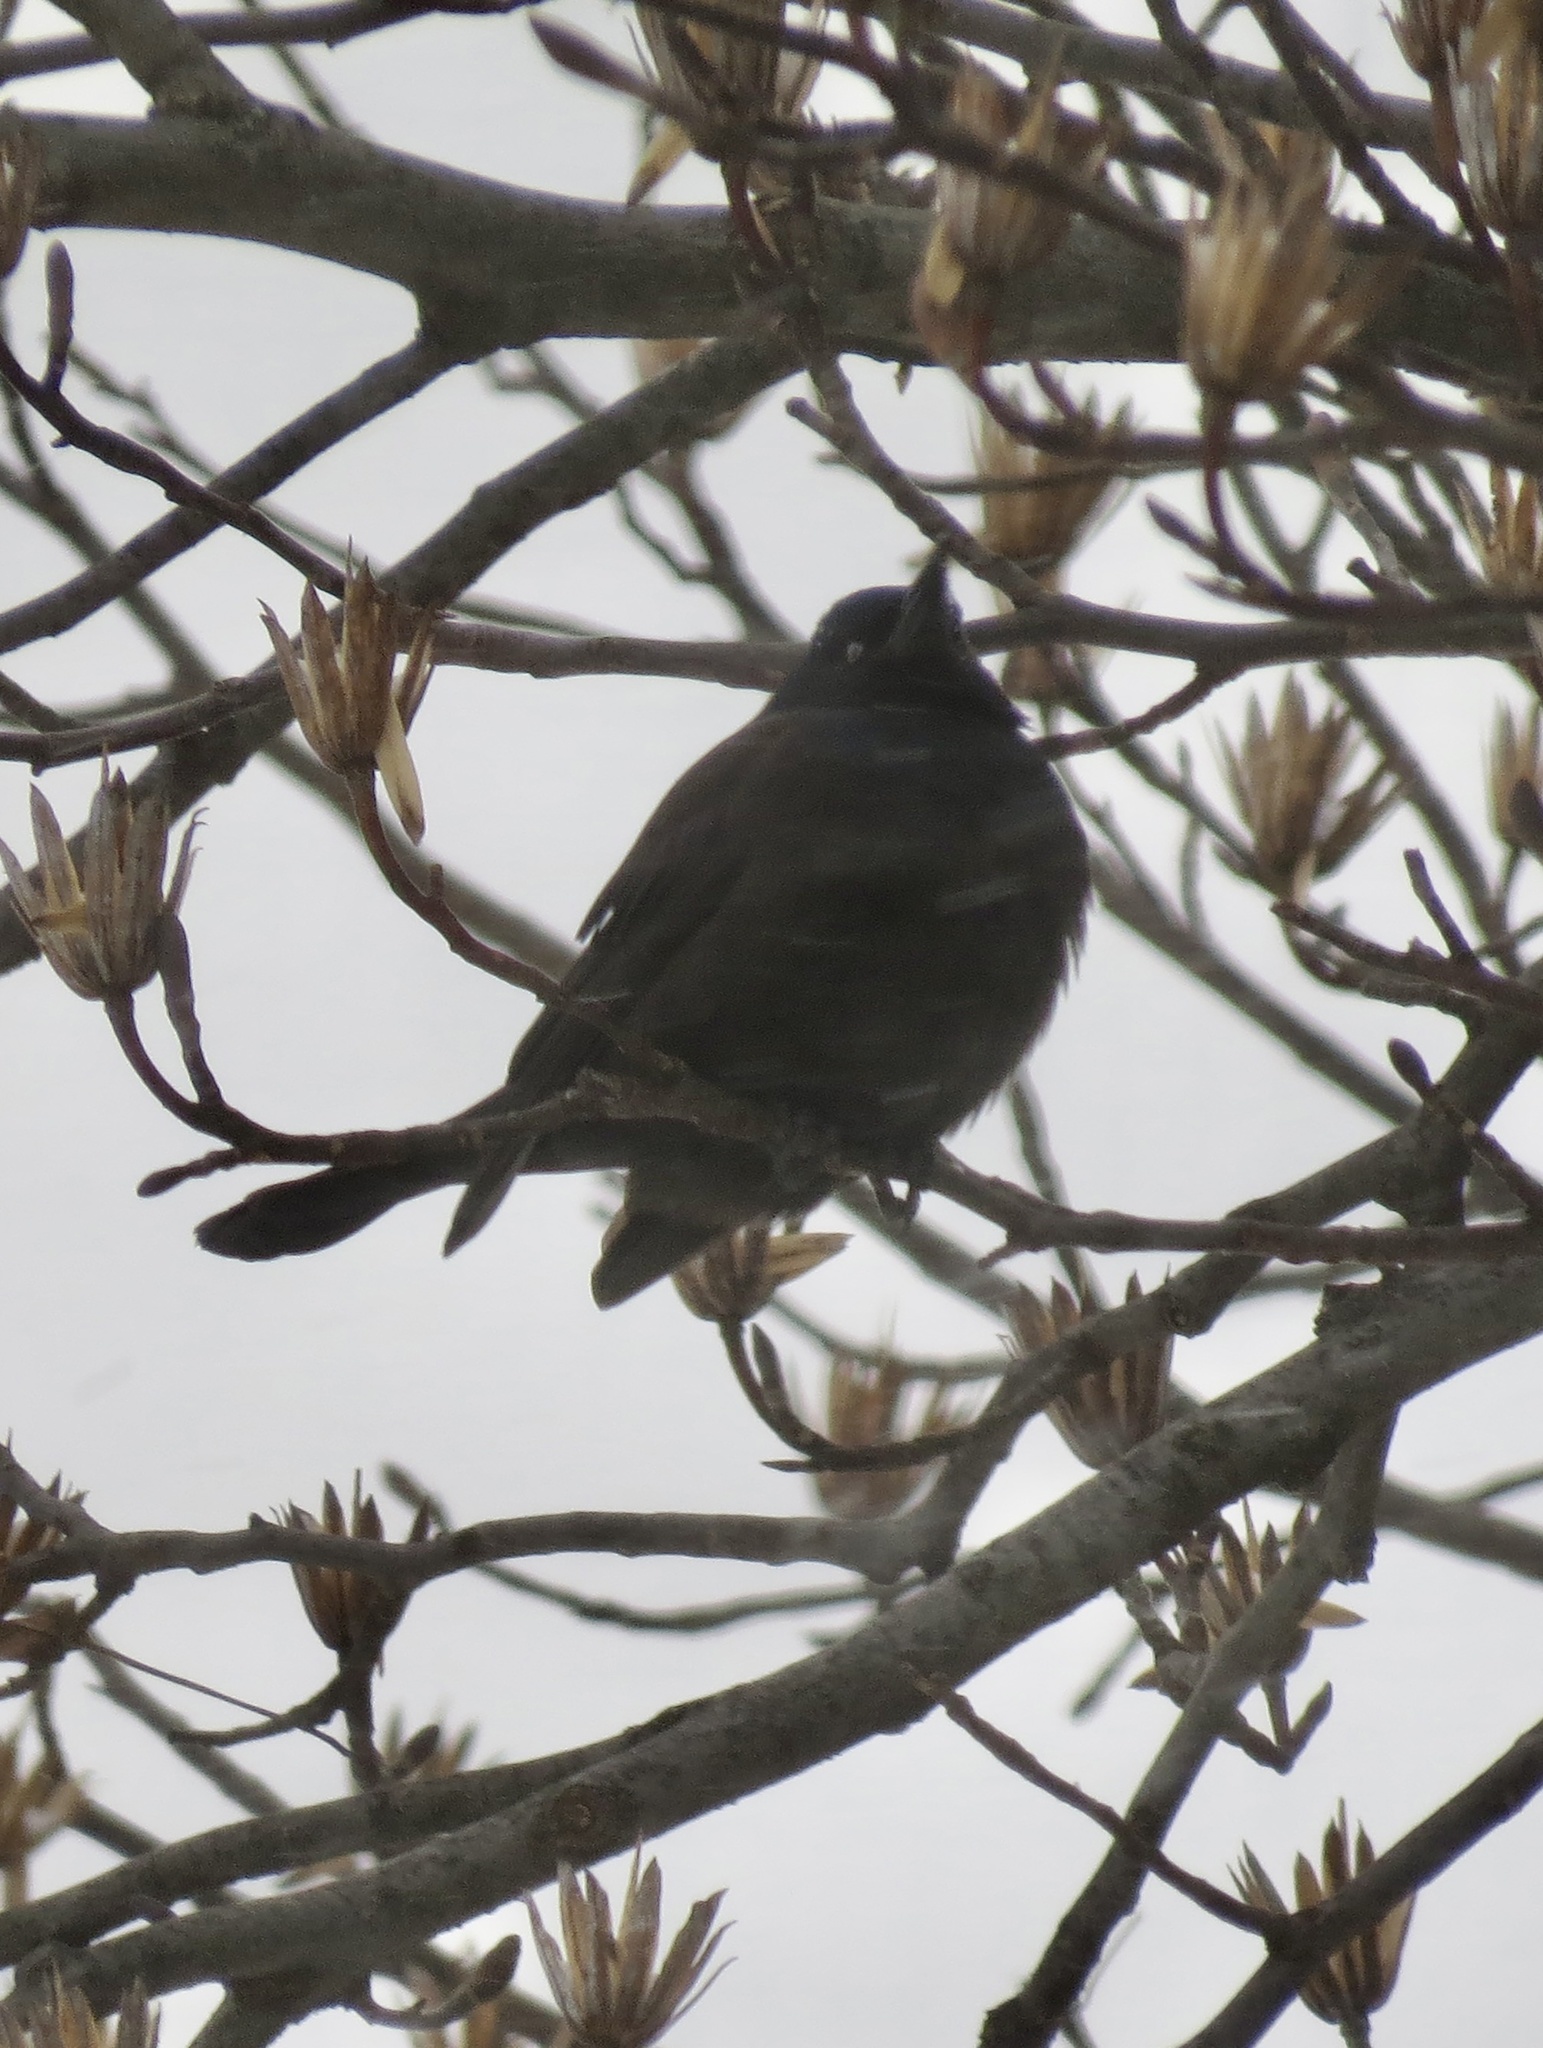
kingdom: Animalia
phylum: Chordata
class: Aves
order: Passeriformes
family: Icteridae
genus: Quiscalus
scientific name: Quiscalus quiscula
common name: Common grackle
